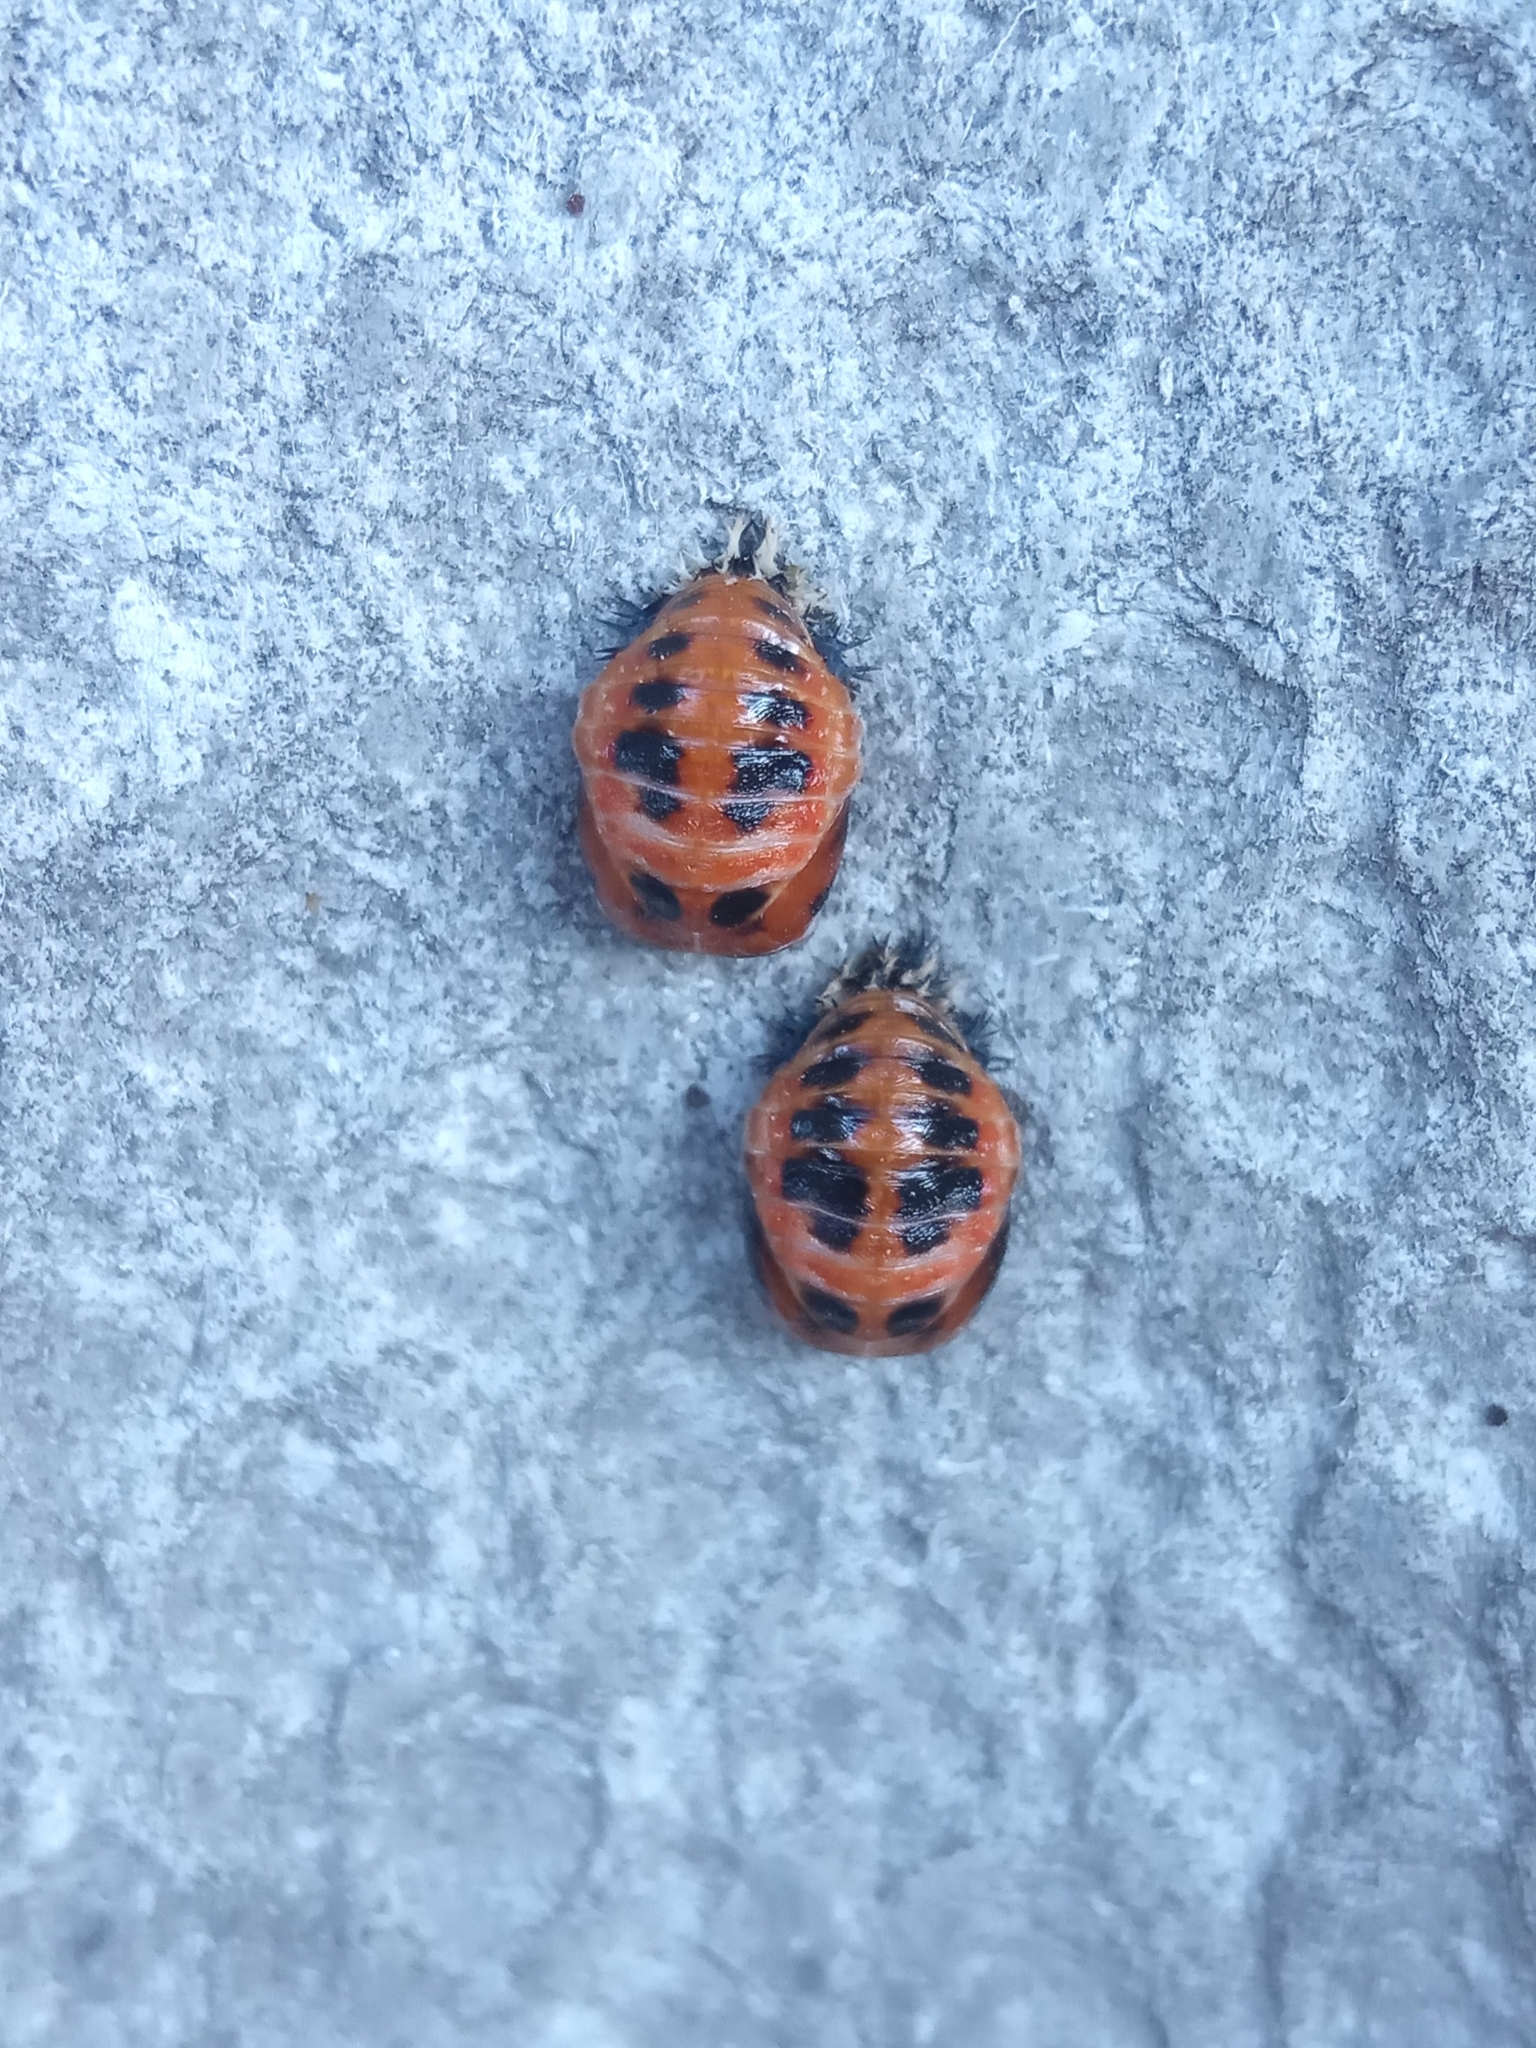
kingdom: Animalia
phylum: Arthropoda
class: Insecta
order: Coleoptera
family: Coccinellidae
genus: Harmonia
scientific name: Harmonia axyridis
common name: Harlequin ladybird
